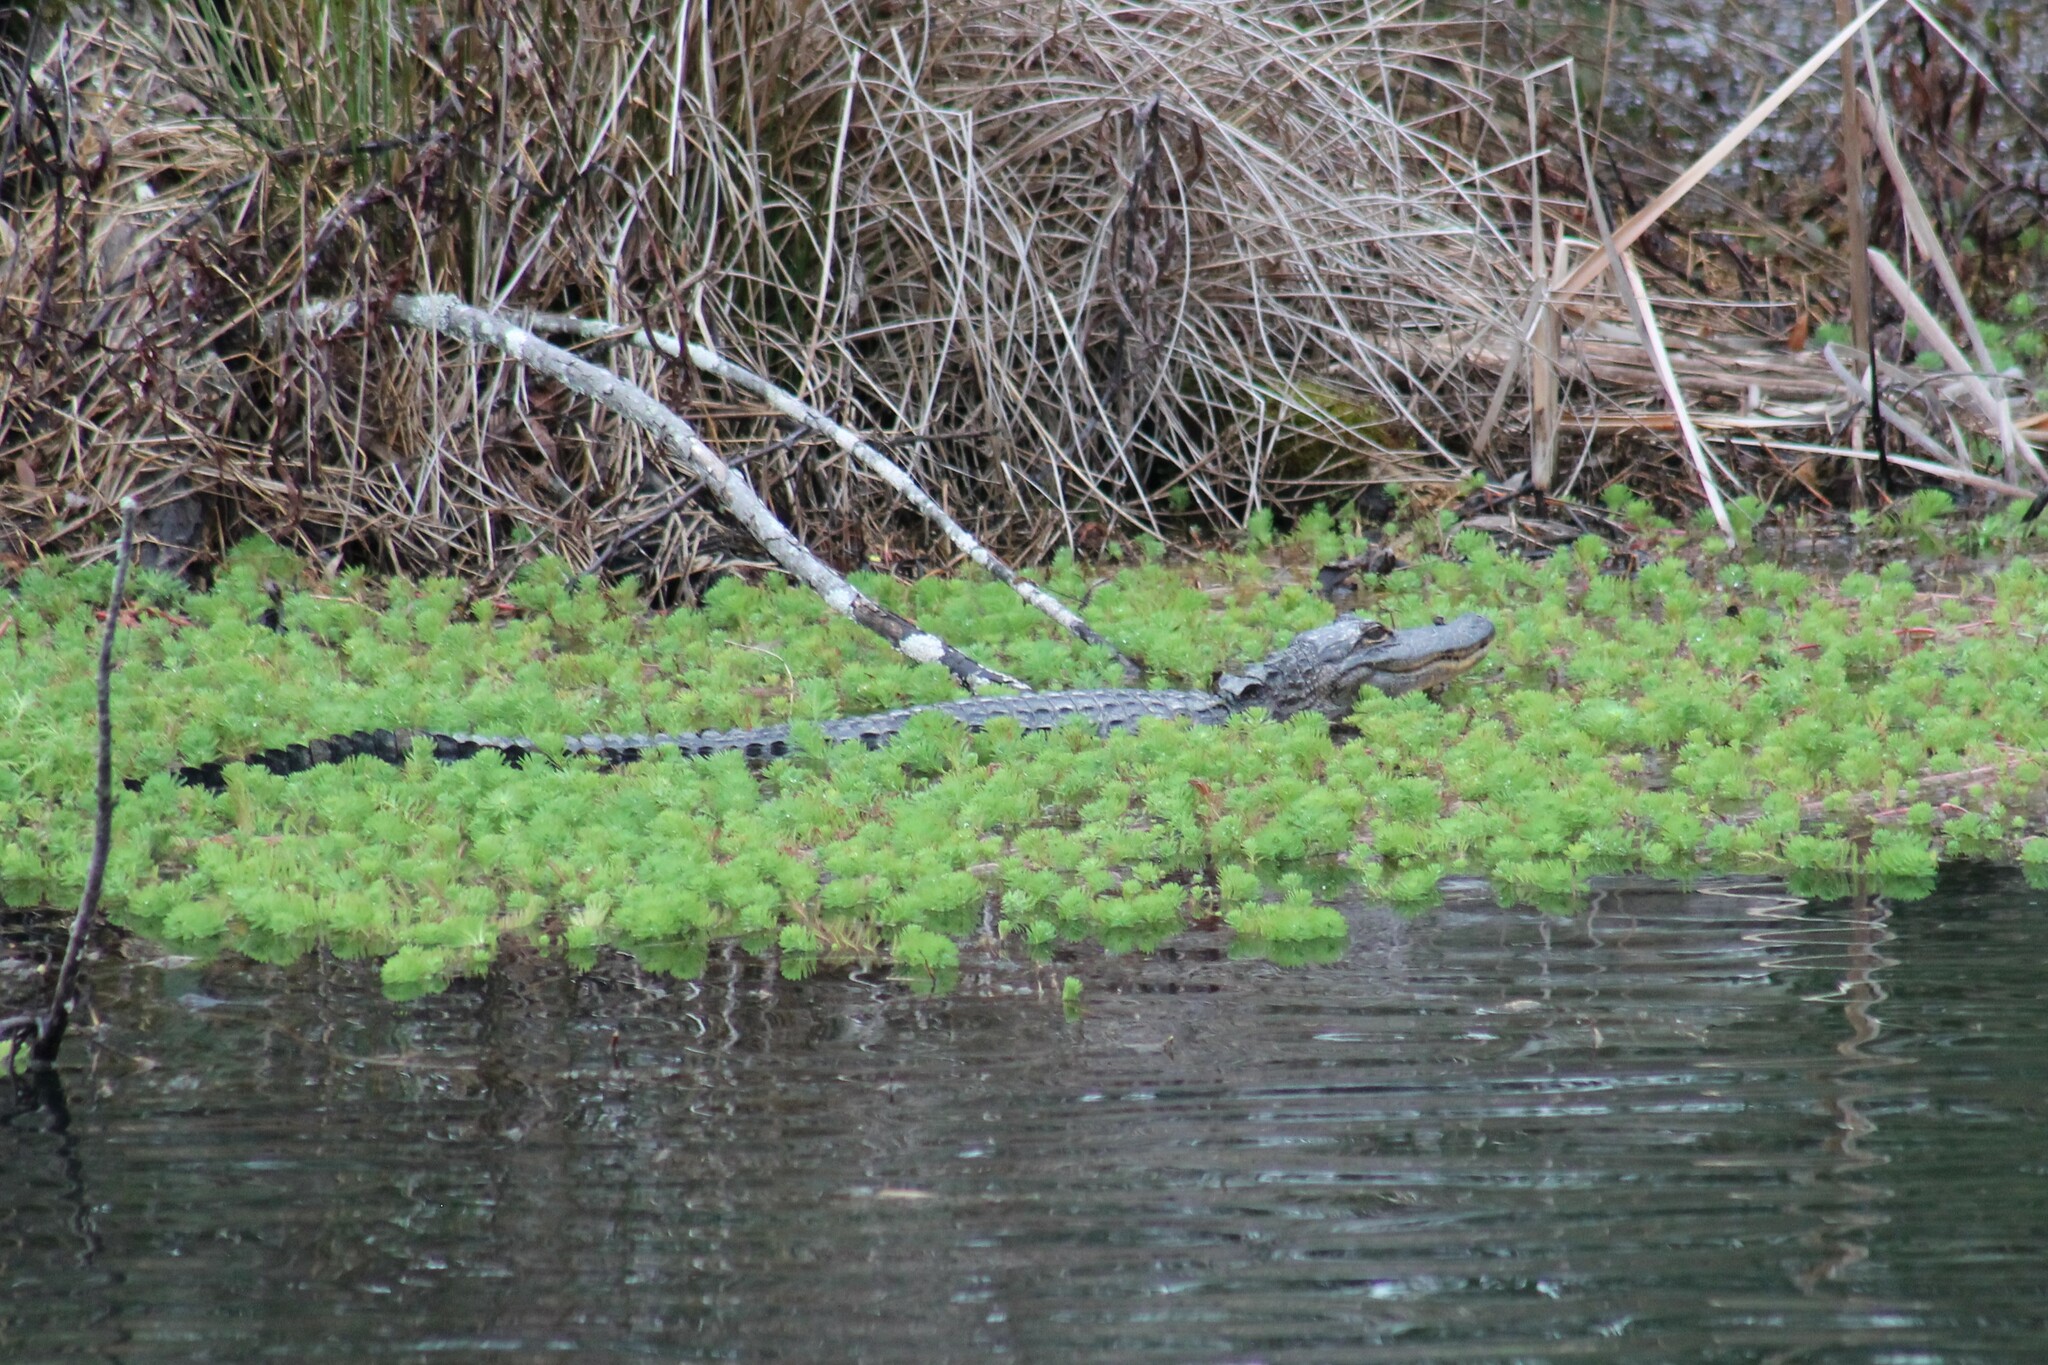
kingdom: Animalia
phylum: Chordata
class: Crocodylia
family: Alligatoridae
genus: Alligator
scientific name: Alligator mississippiensis
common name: American alligator
